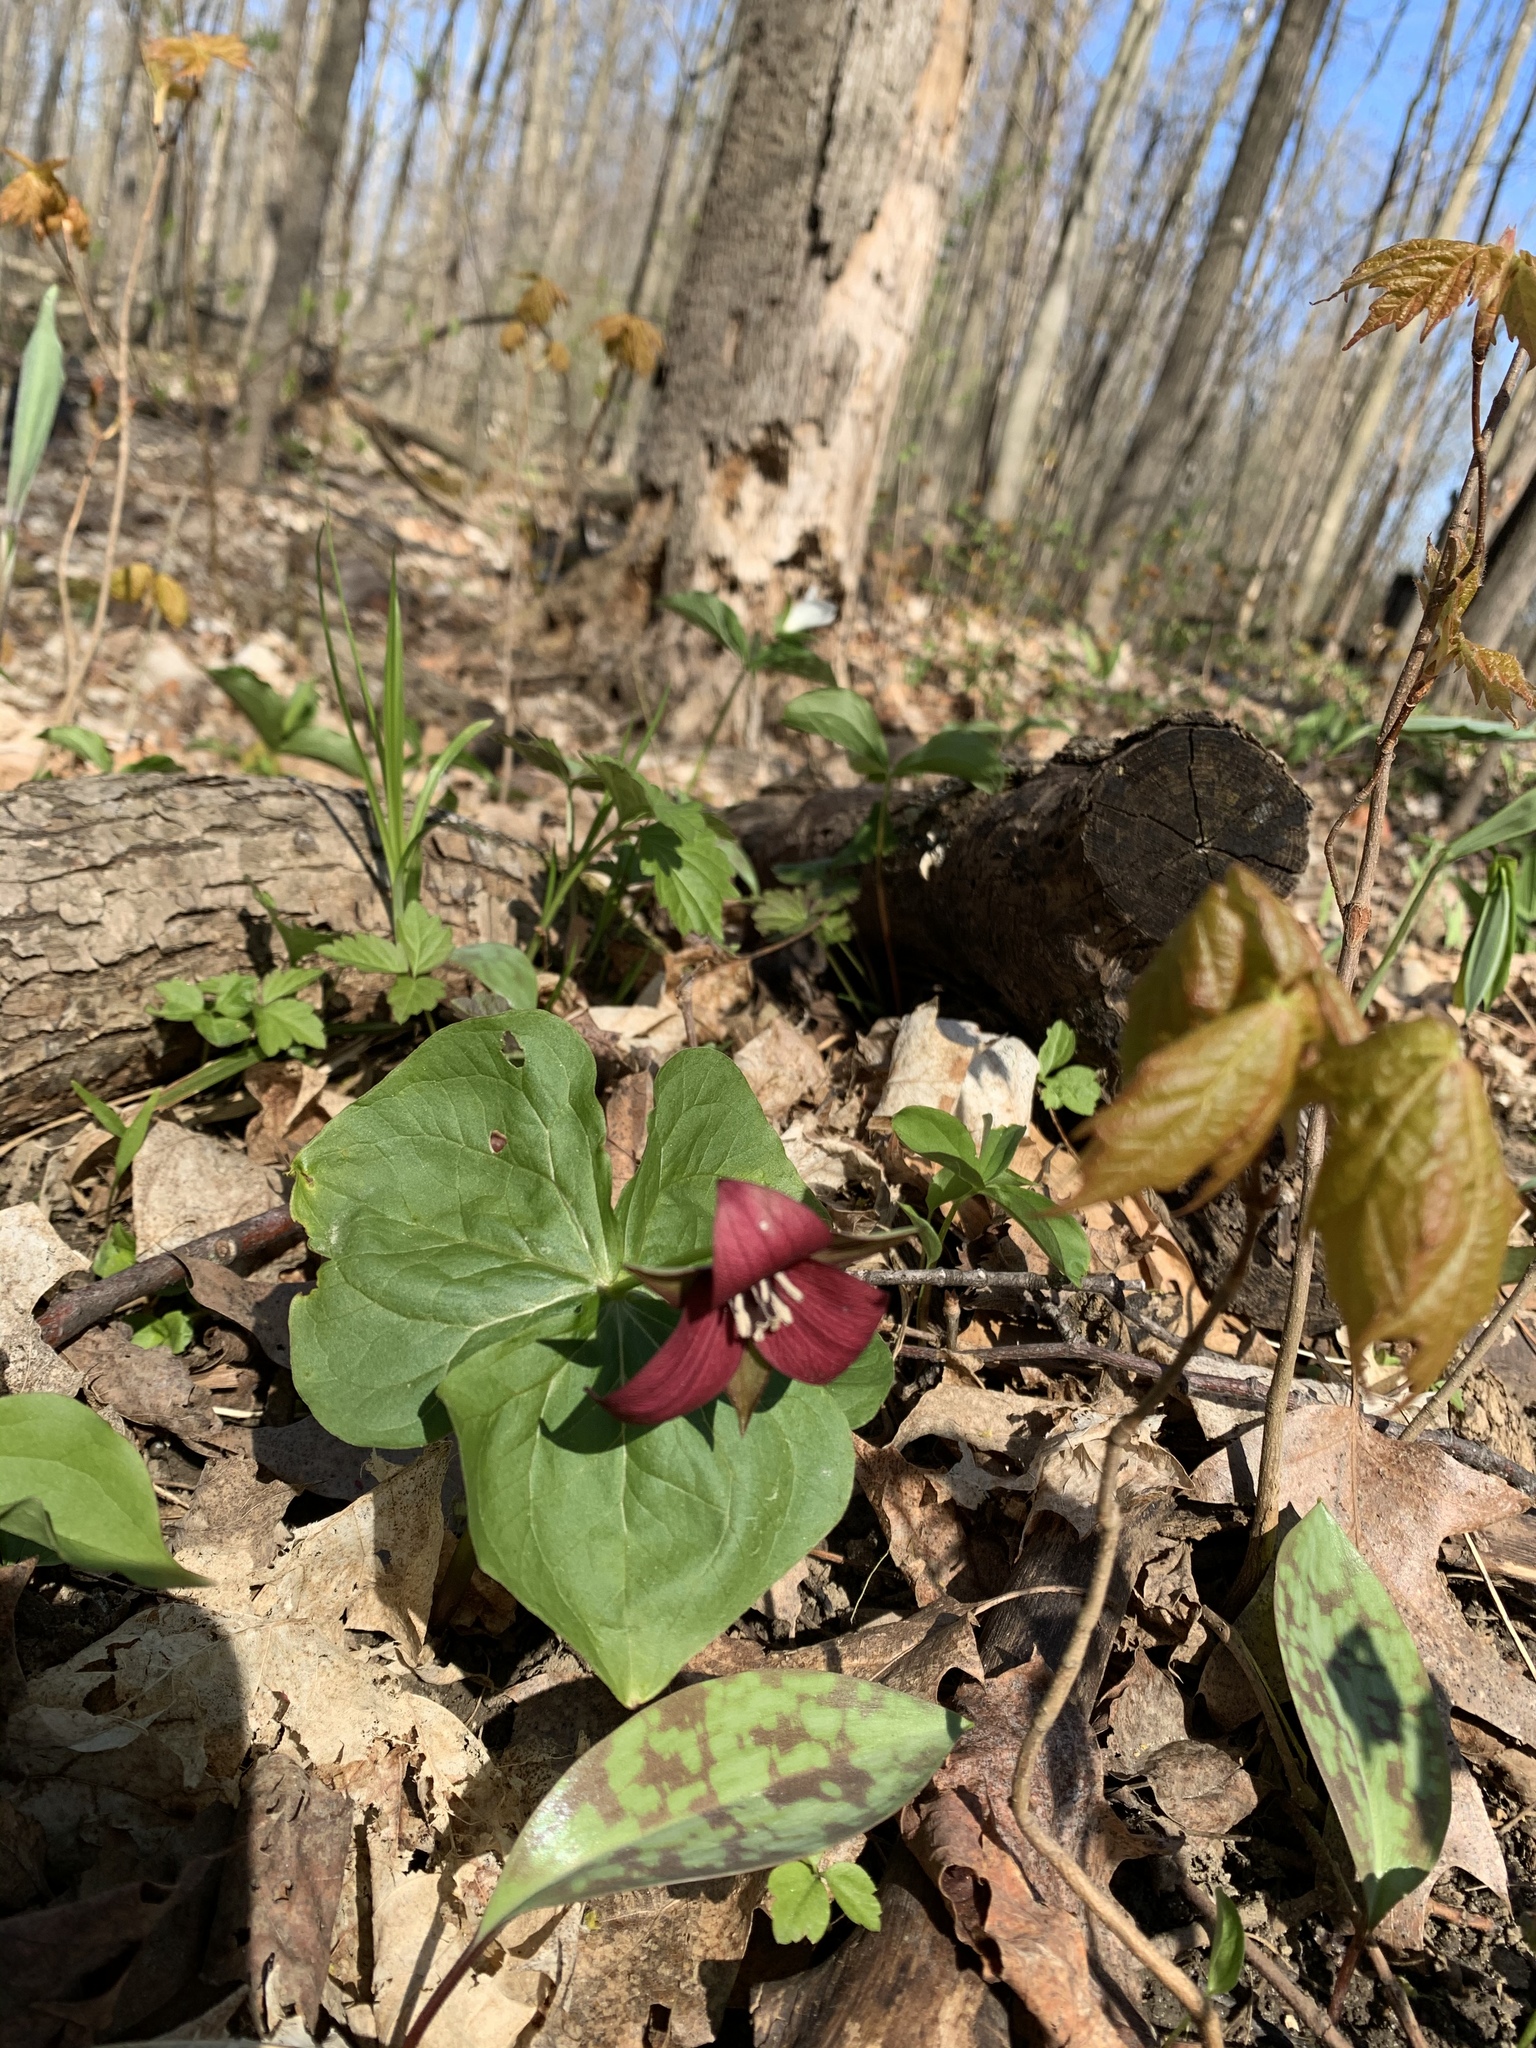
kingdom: Plantae
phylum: Tracheophyta
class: Liliopsida
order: Liliales
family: Melanthiaceae
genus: Trillium
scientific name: Trillium erectum
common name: Purple trillium
